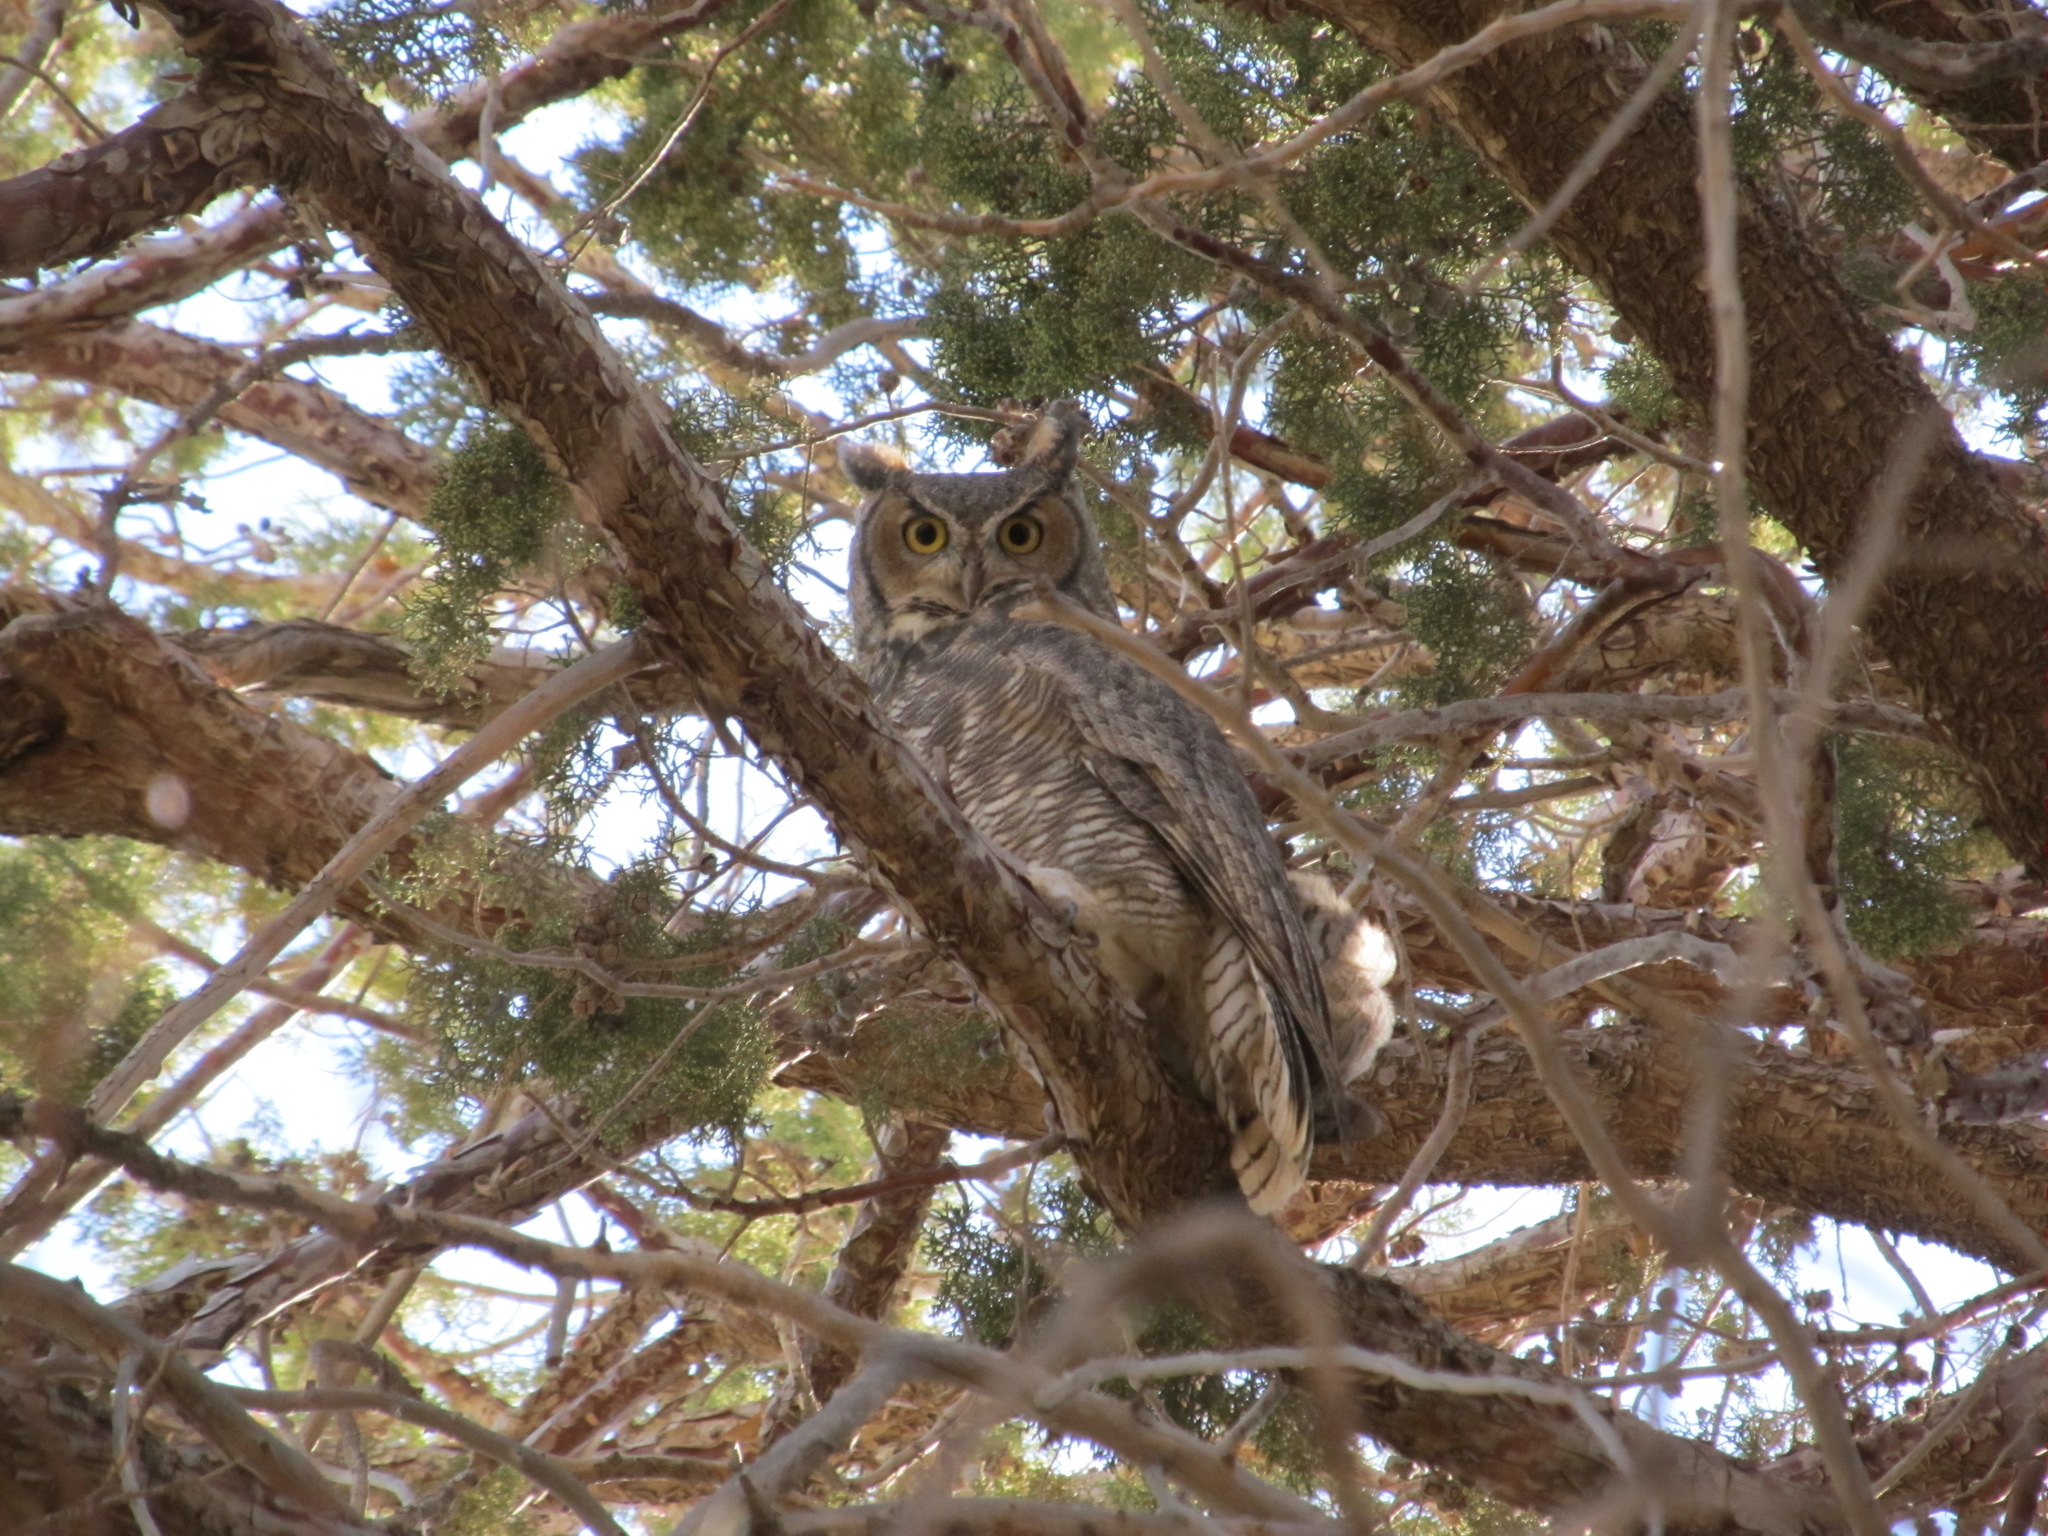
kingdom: Animalia
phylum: Chordata
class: Aves
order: Strigiformes
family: Strigidae
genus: Bubo
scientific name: Bubo virginianus
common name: Great horned owl
